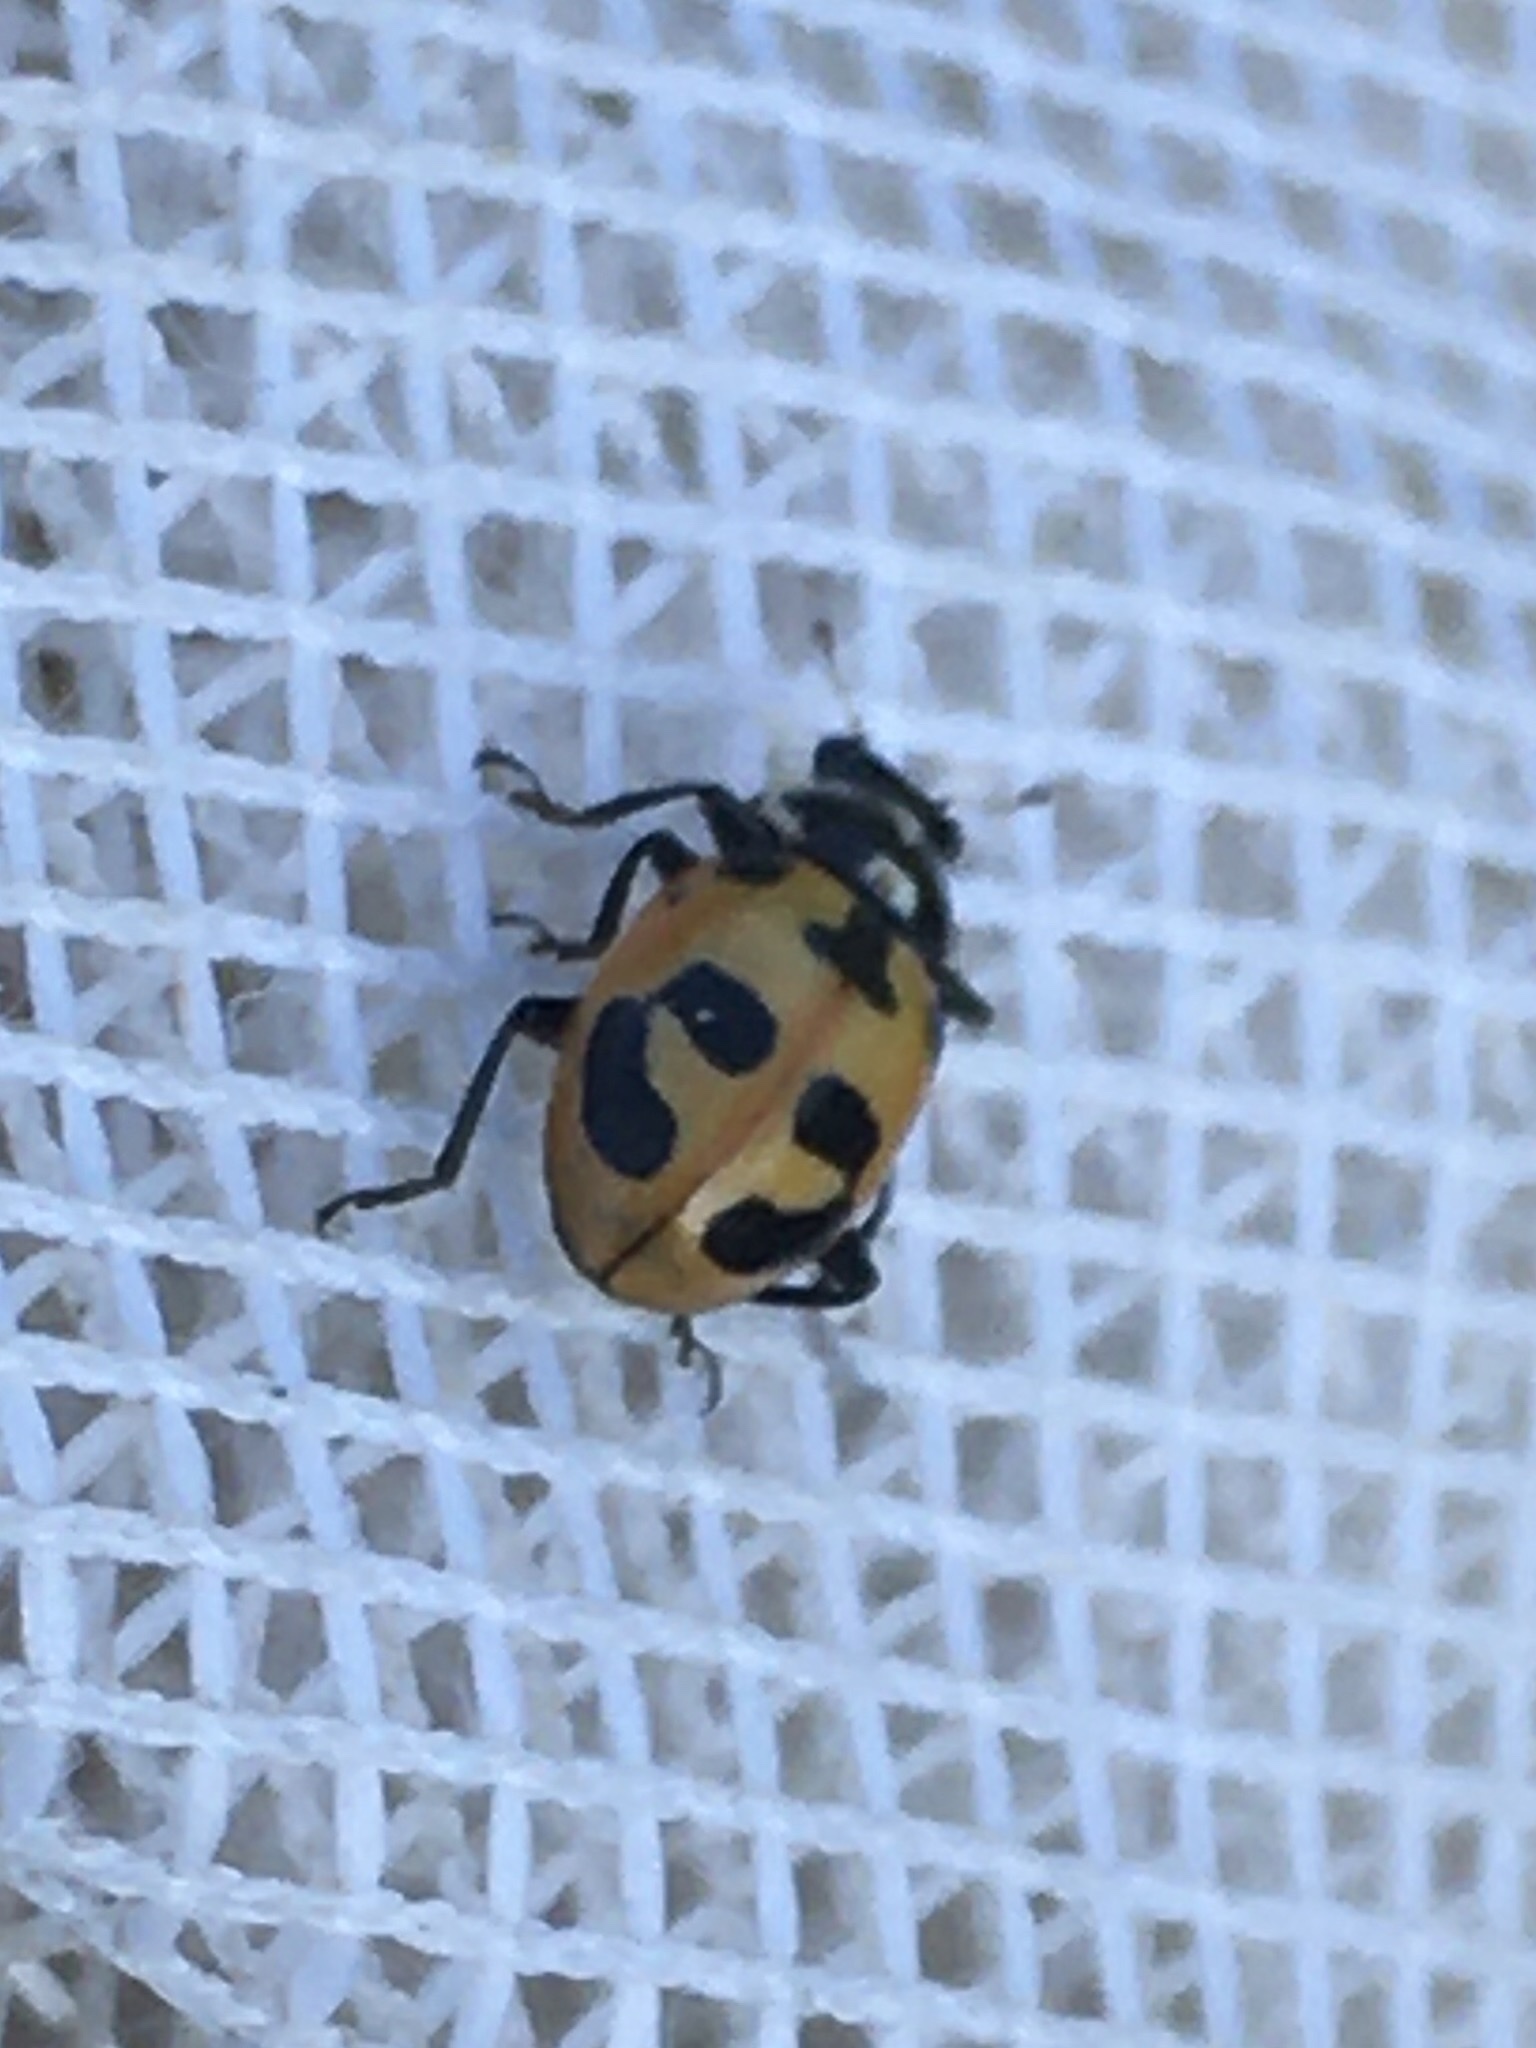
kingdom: Animalia
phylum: Arthropoda
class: Insecta
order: Coleoptera
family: Coccinellidae
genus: Hippodamia
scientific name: Hippodamia parenthesis
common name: Parenthesis lady beetle
